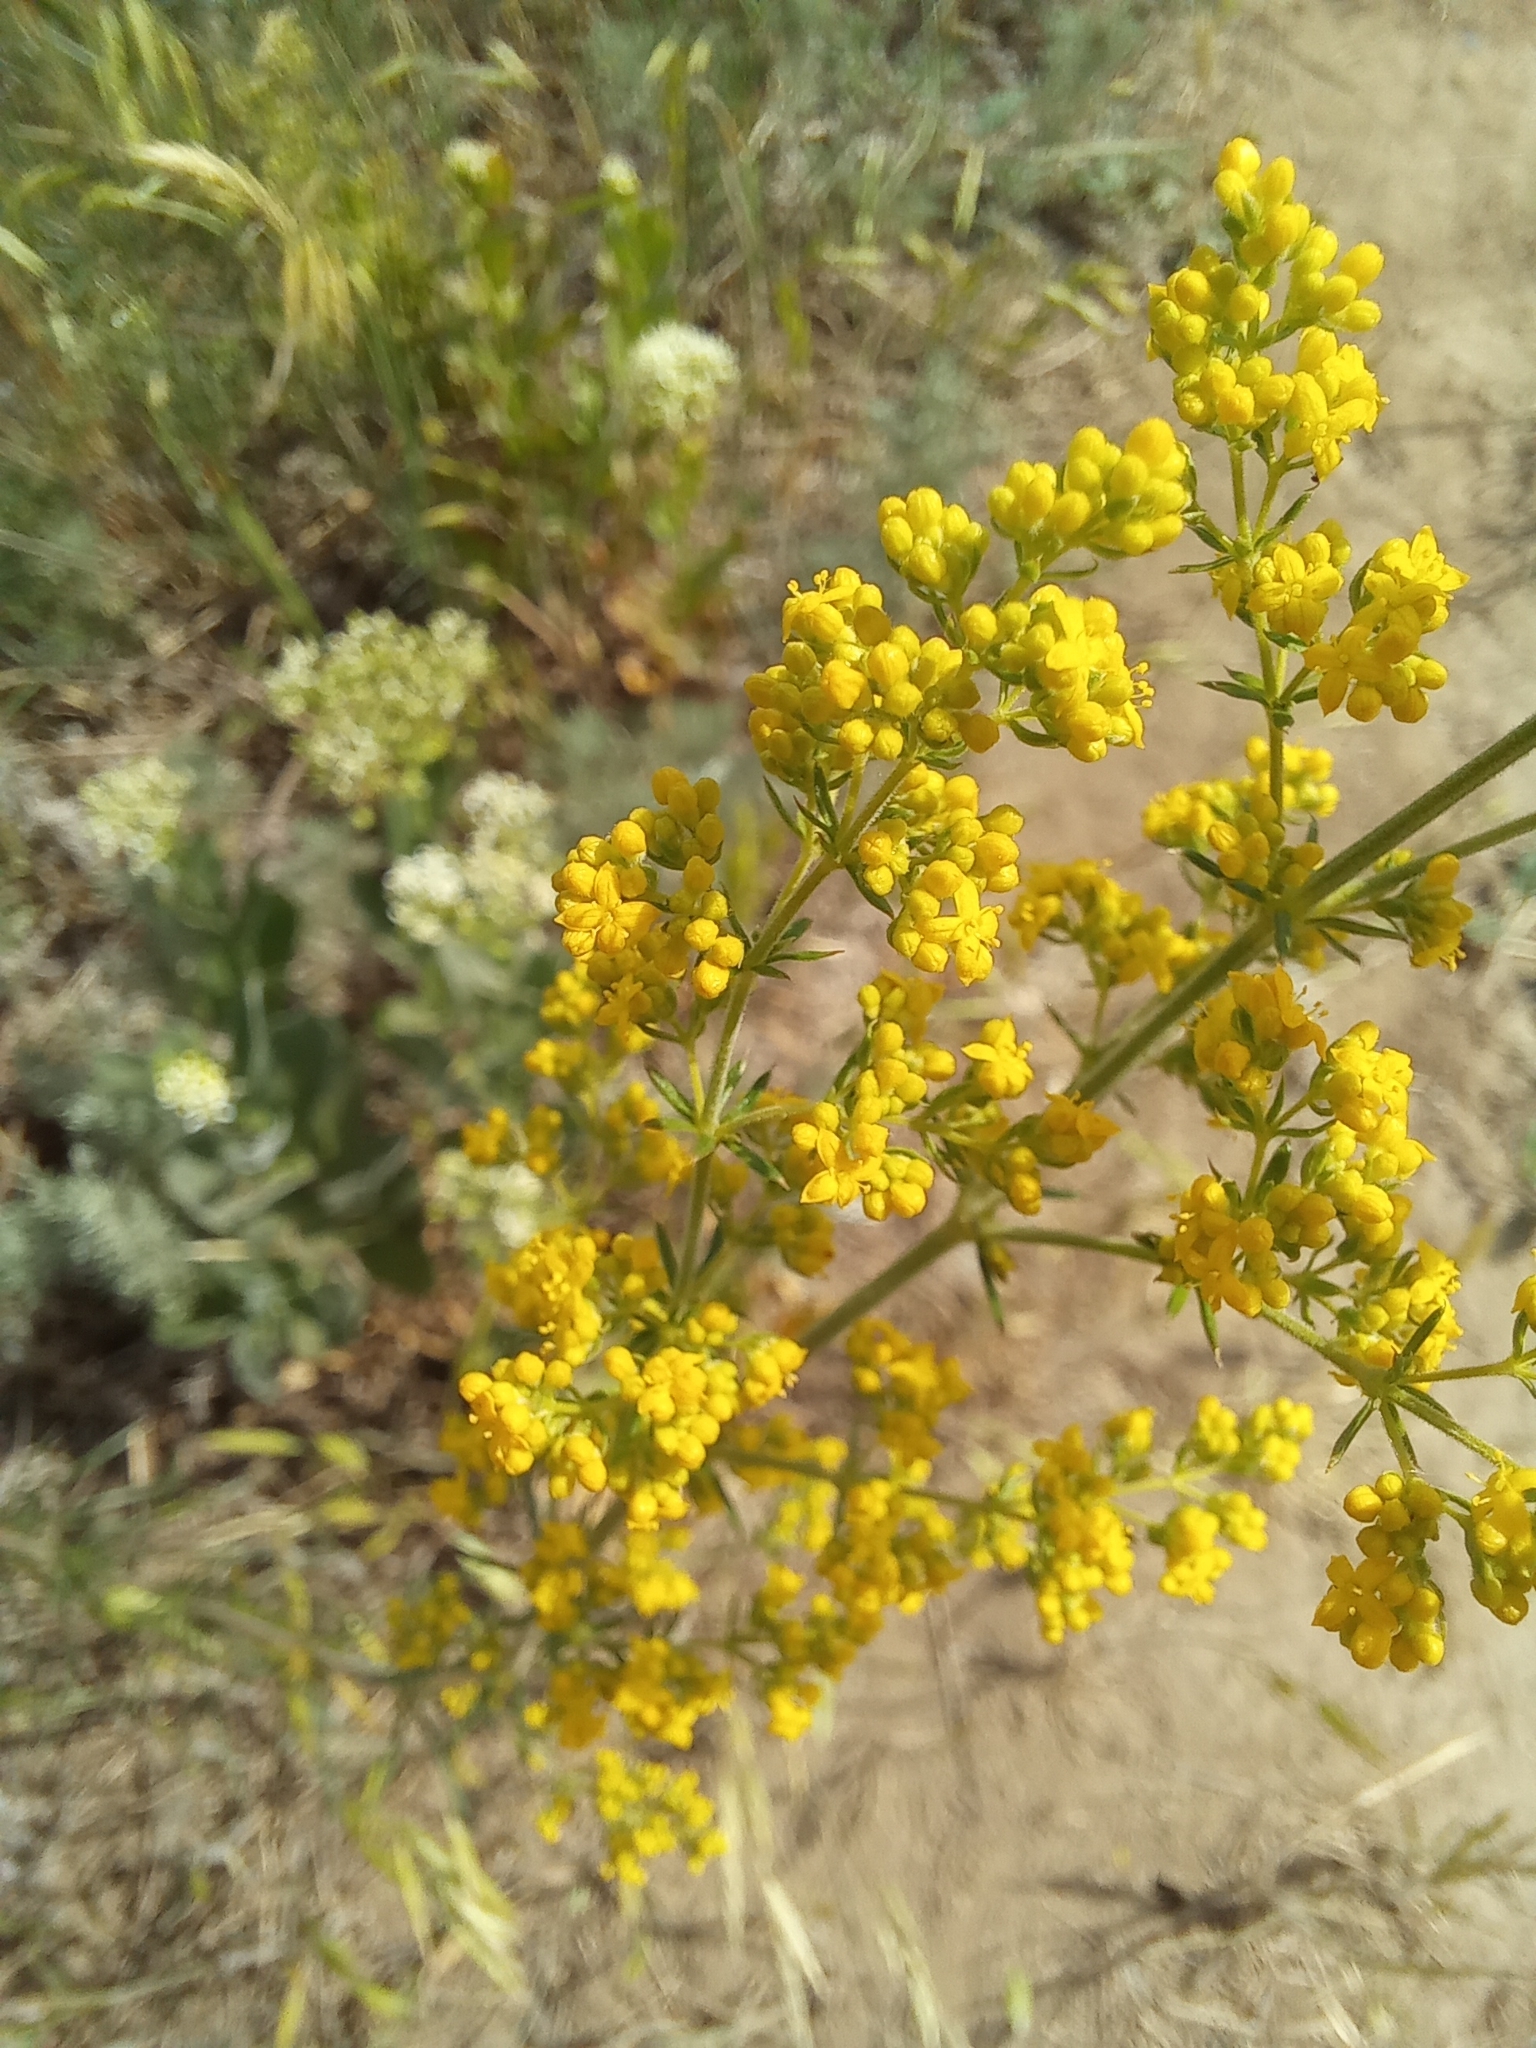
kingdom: Plantae
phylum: Tracheophyta
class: Magnoliopsida
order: Gentianales
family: Rubiaceae
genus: Galium
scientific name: Galium verum
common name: Lady's bedstraw
